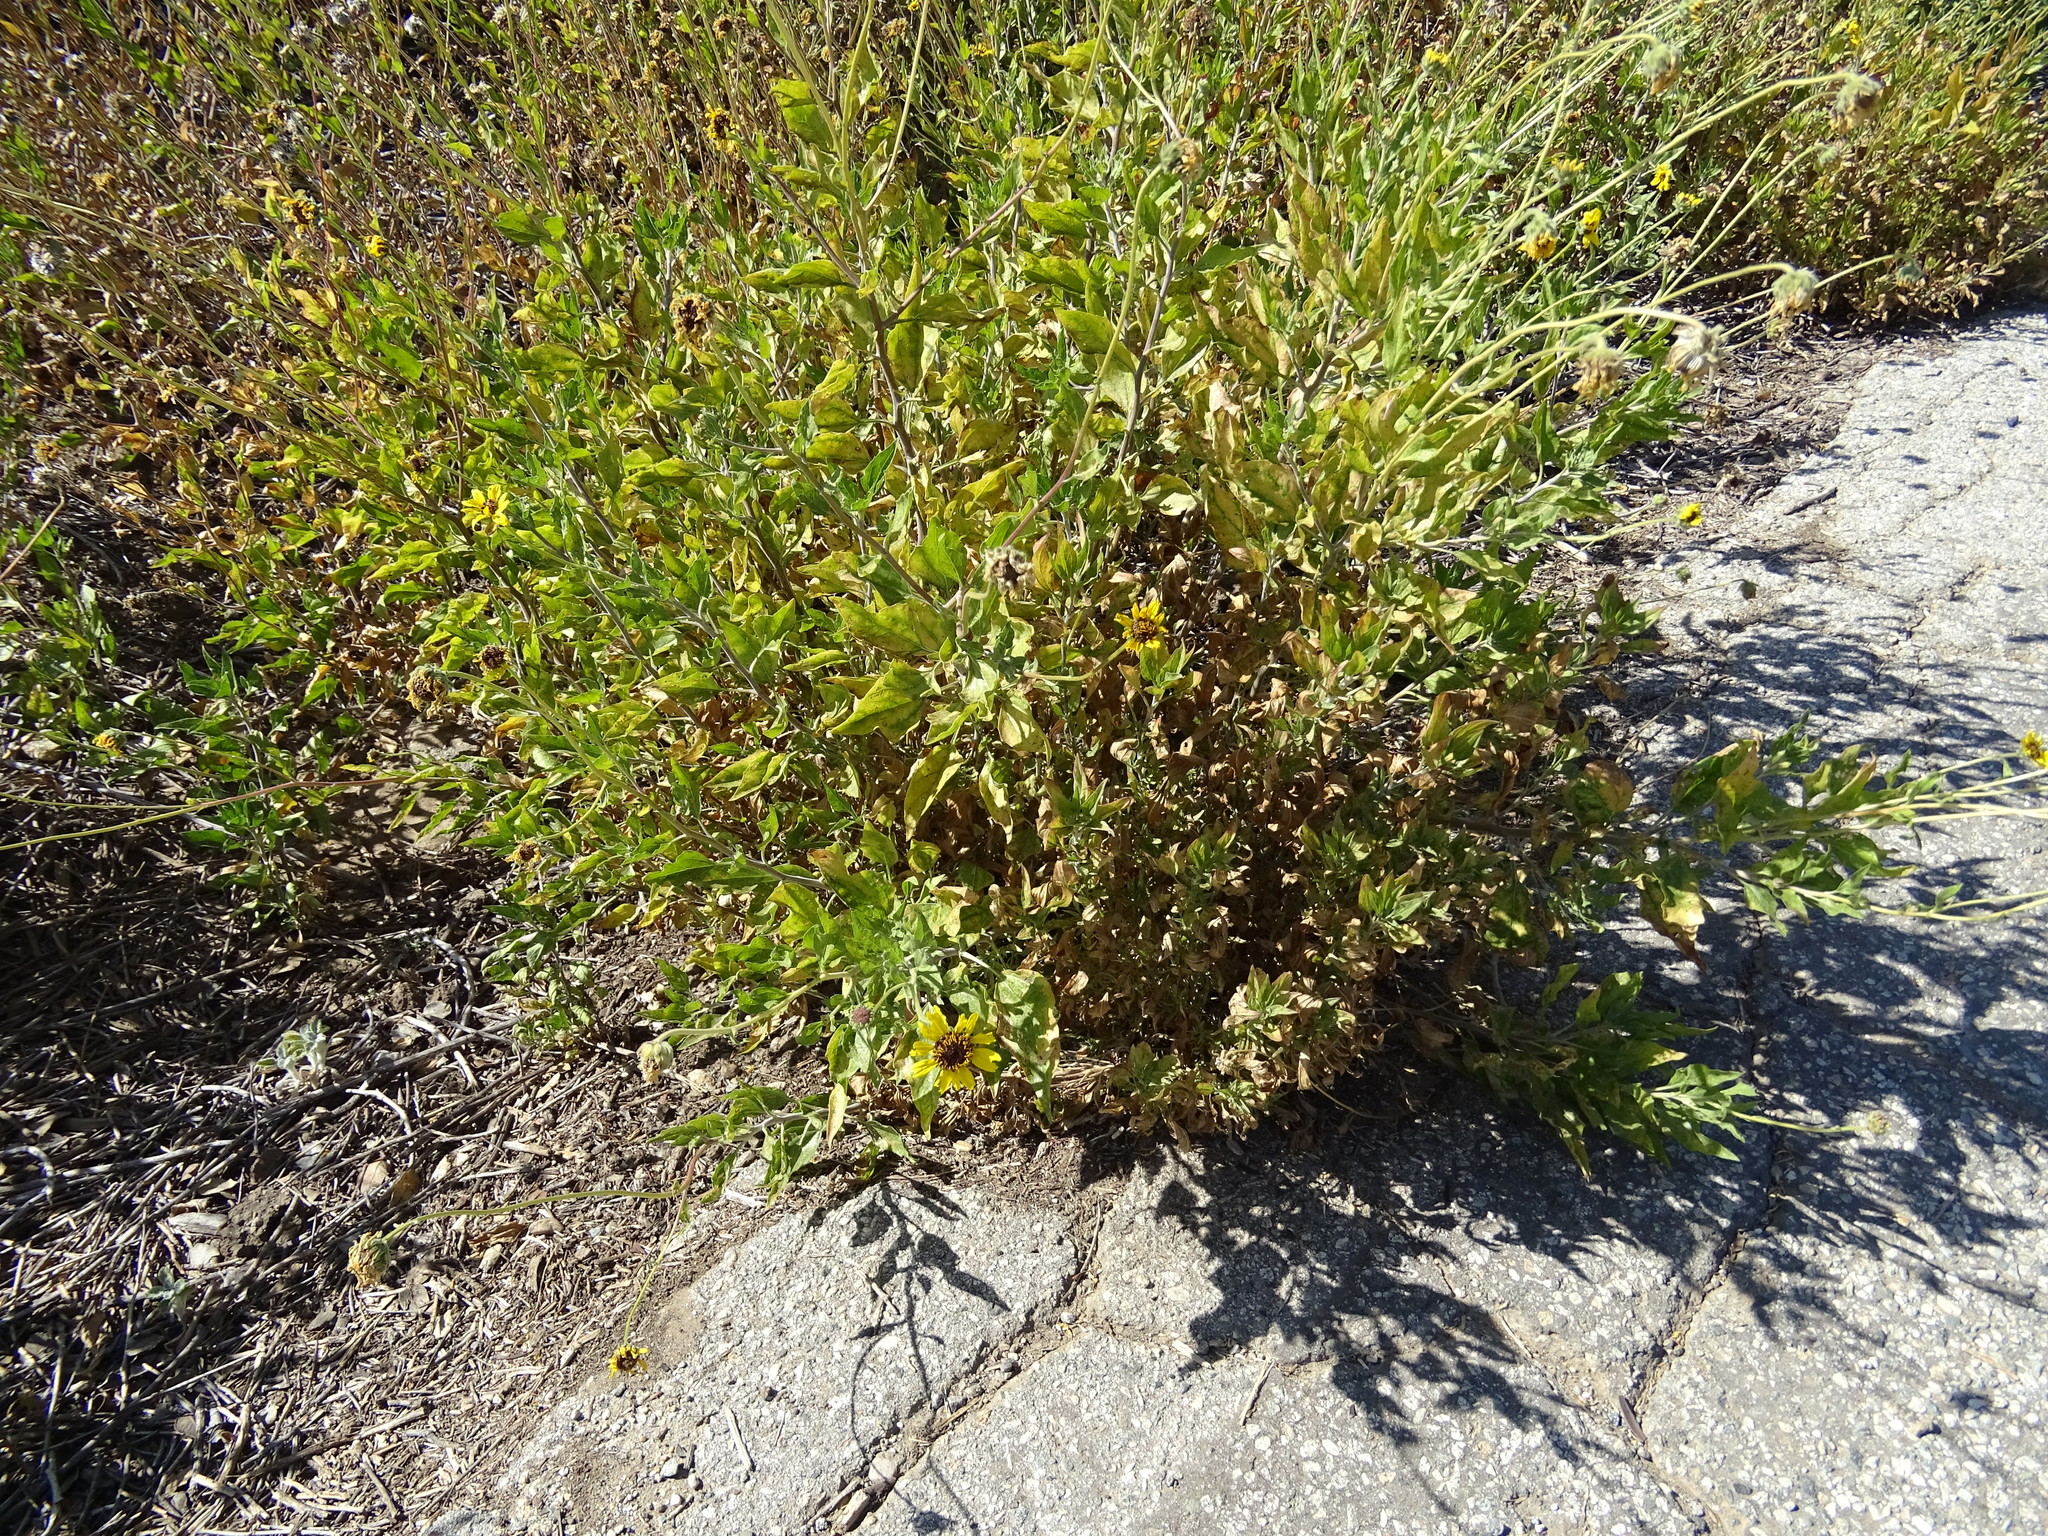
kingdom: Plantae
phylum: Tracheophyta
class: Magnoliopsida
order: Asterales
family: Asteraceae
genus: Encelia
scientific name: Encelia californica
